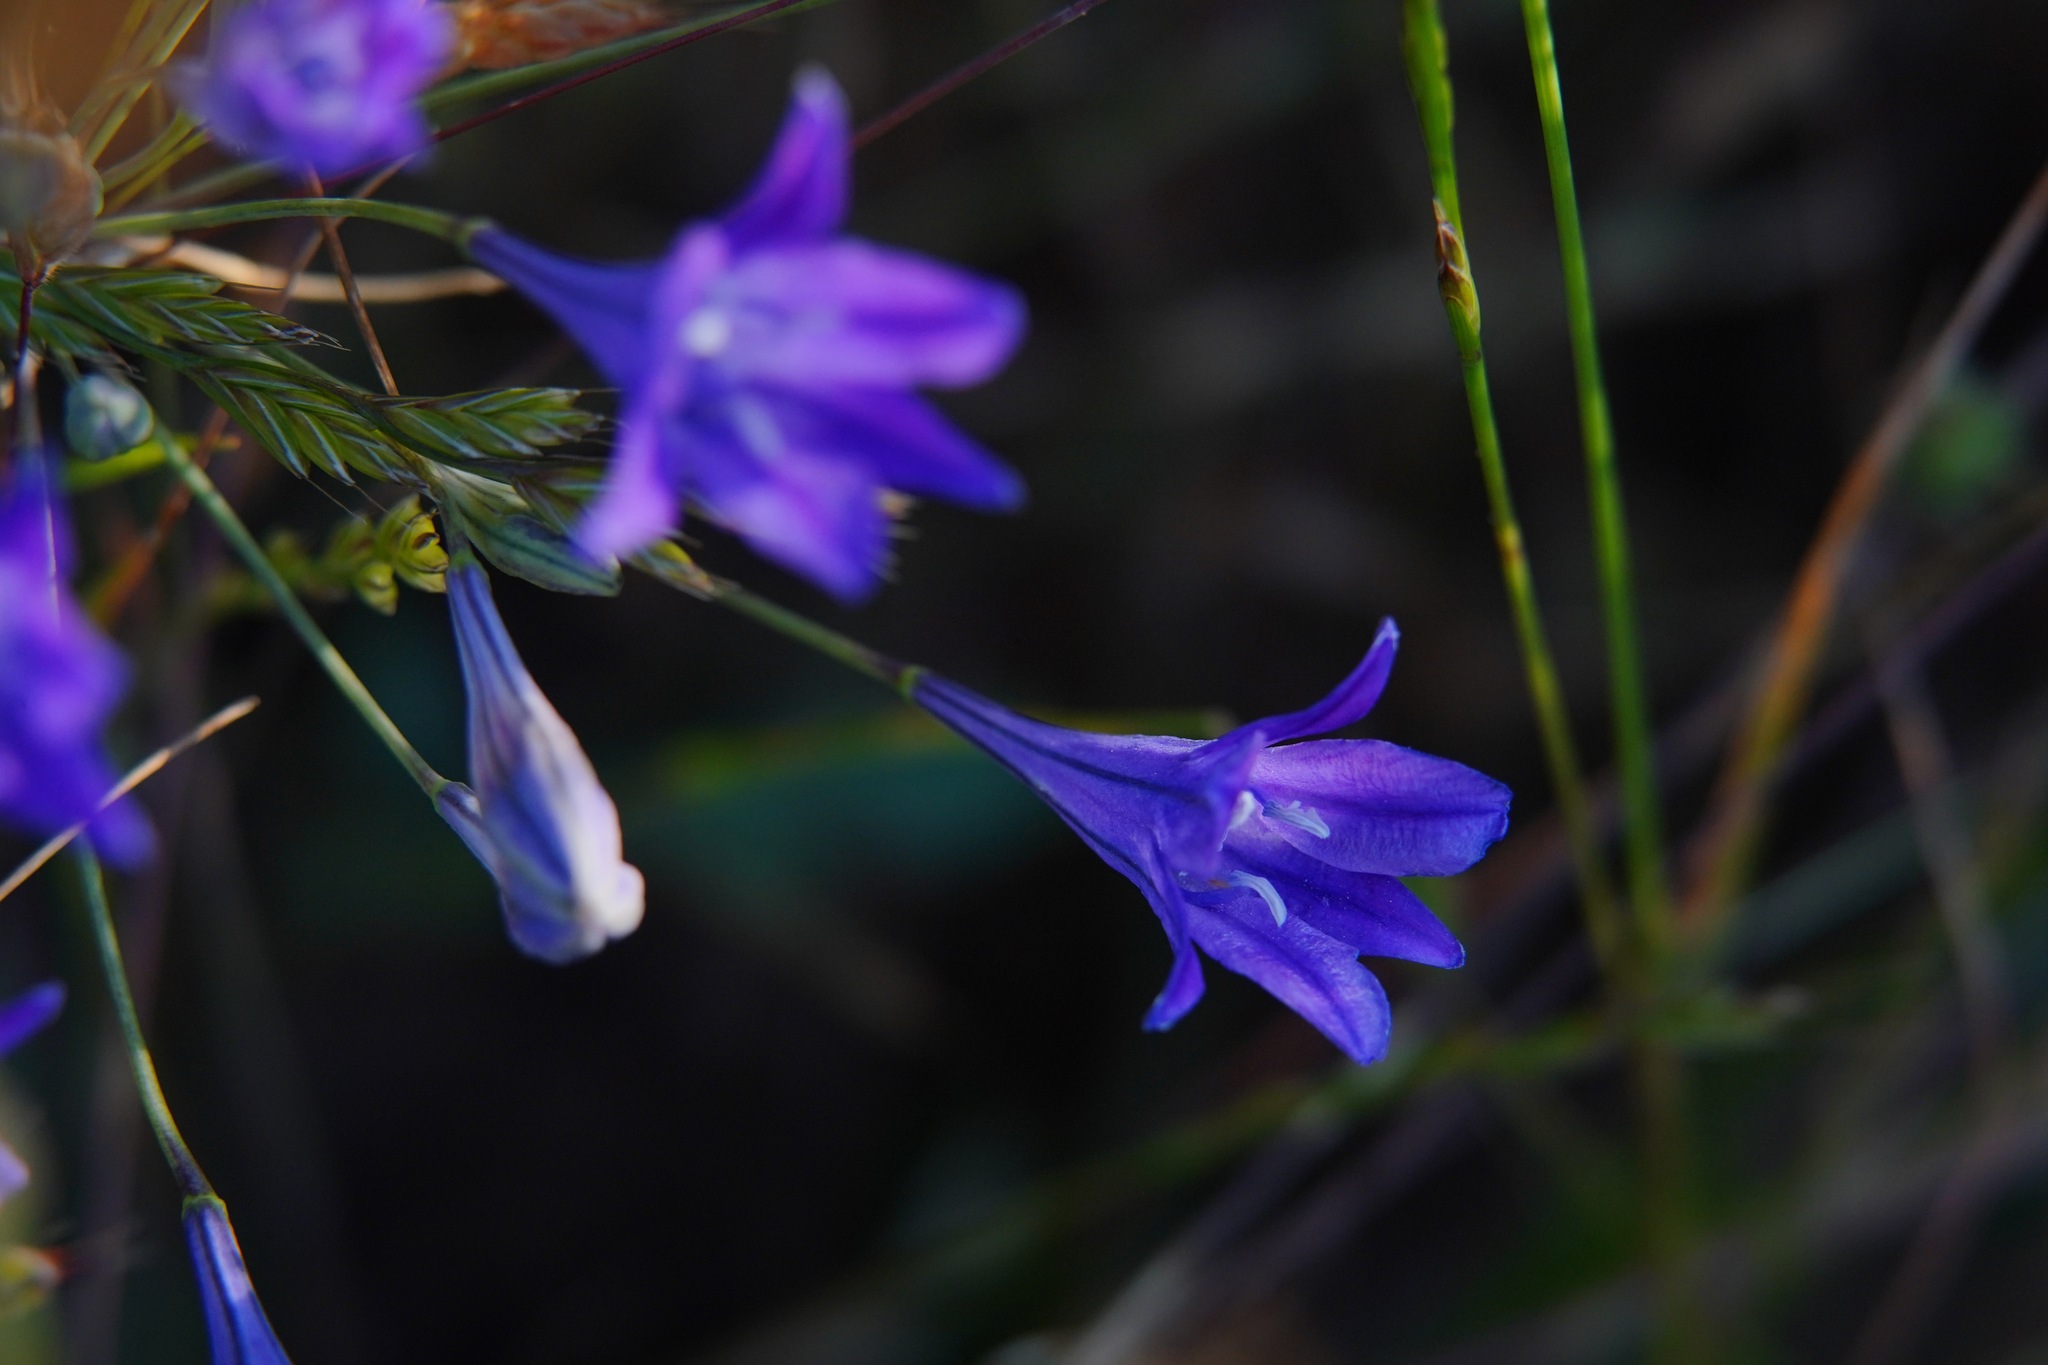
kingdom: Plantae
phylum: Tracheophyta
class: Liliopsida
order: Asparagales
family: Asparagaceae
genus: Triteleia
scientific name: Triteleia laxa
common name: Triplet-lily
